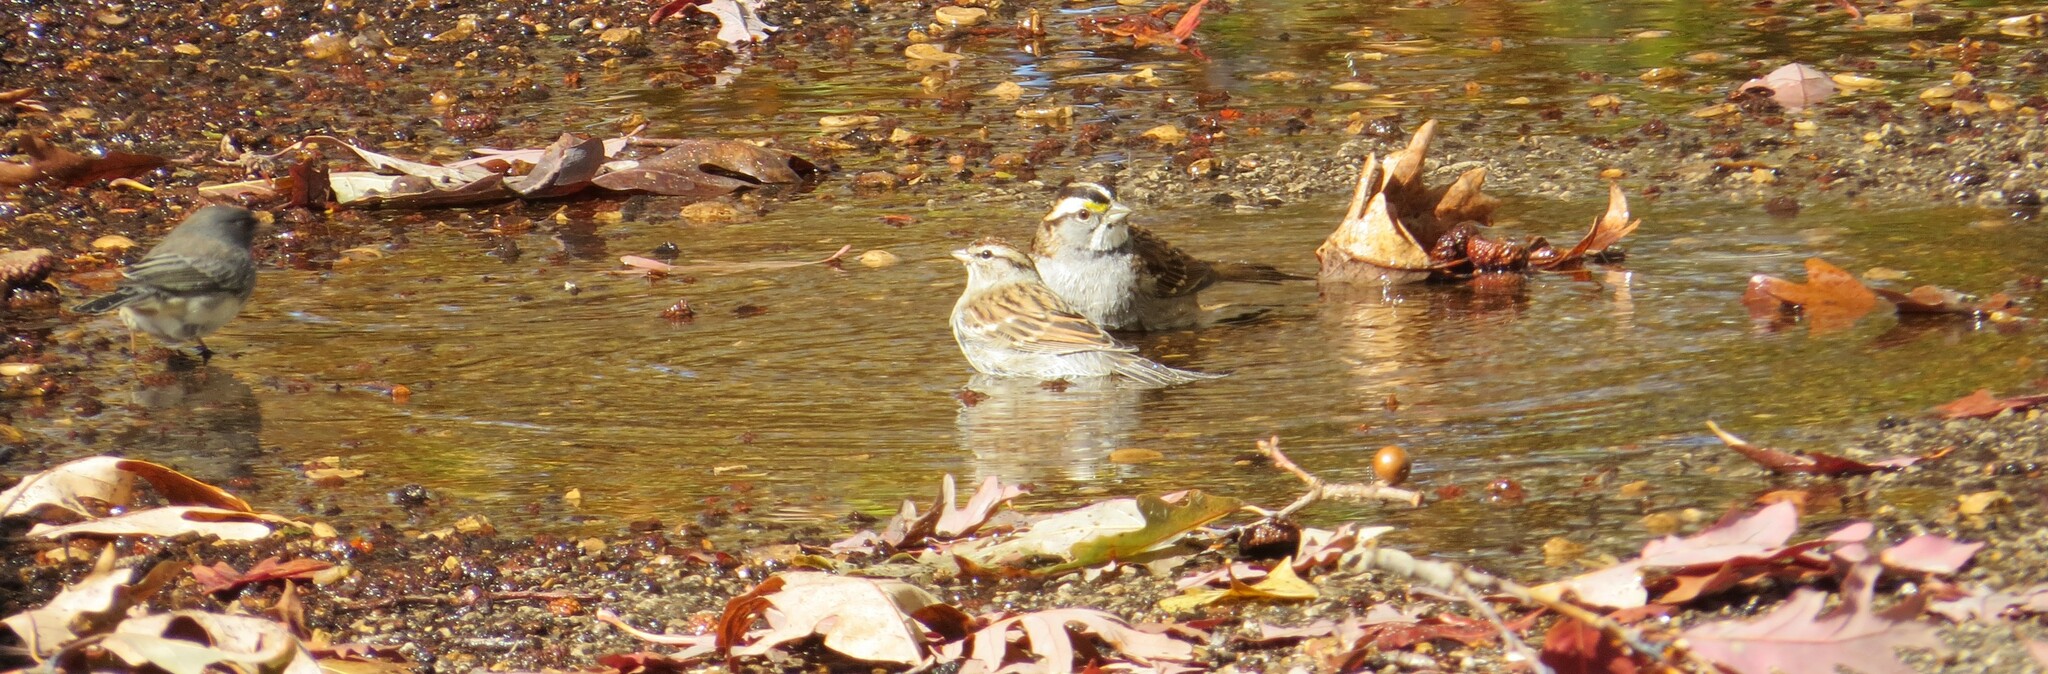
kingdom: Animalia
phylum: Chordata
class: Aves
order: Passeriformes
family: Passerellidae
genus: Zonotrichia
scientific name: Zonotrichia albicollis
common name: White-throated sparrow
